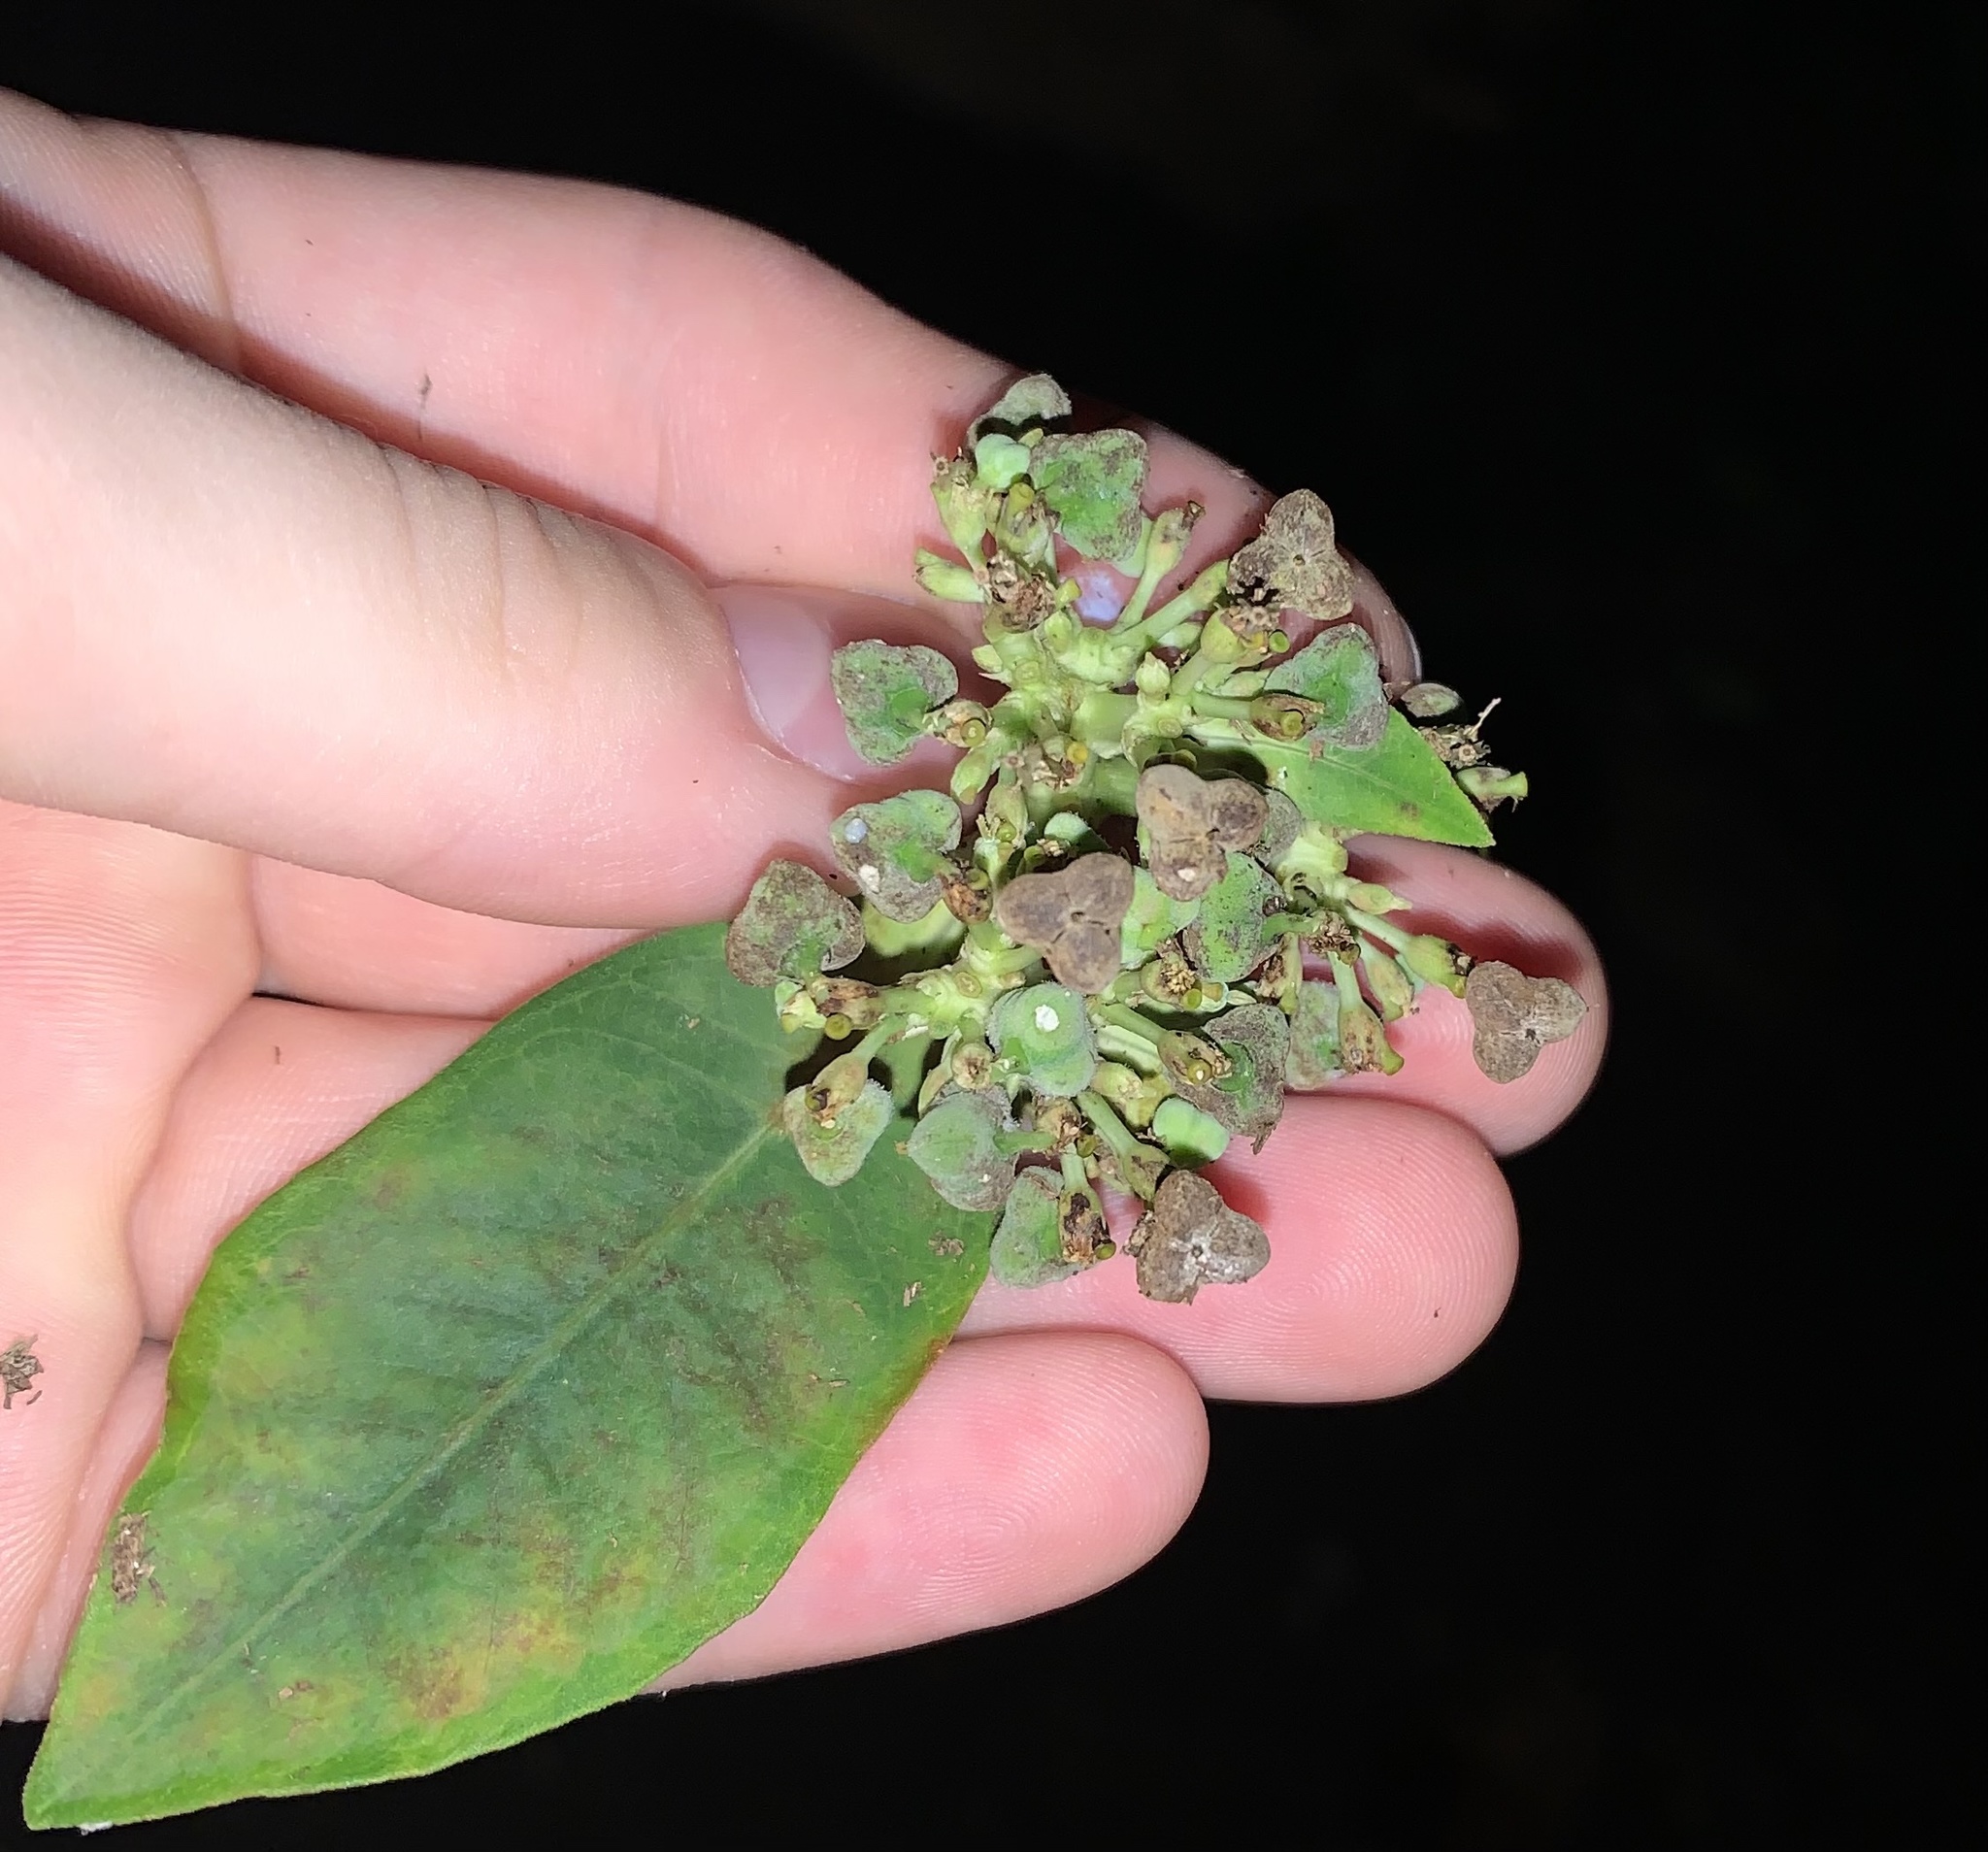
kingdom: Plantae
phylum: Tracheophyta
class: Magnoliopsida
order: Malpighiales
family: Euphorbiaceae
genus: Euphorbia
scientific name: Euphorbia heterophylla
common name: Mexican fireplant
